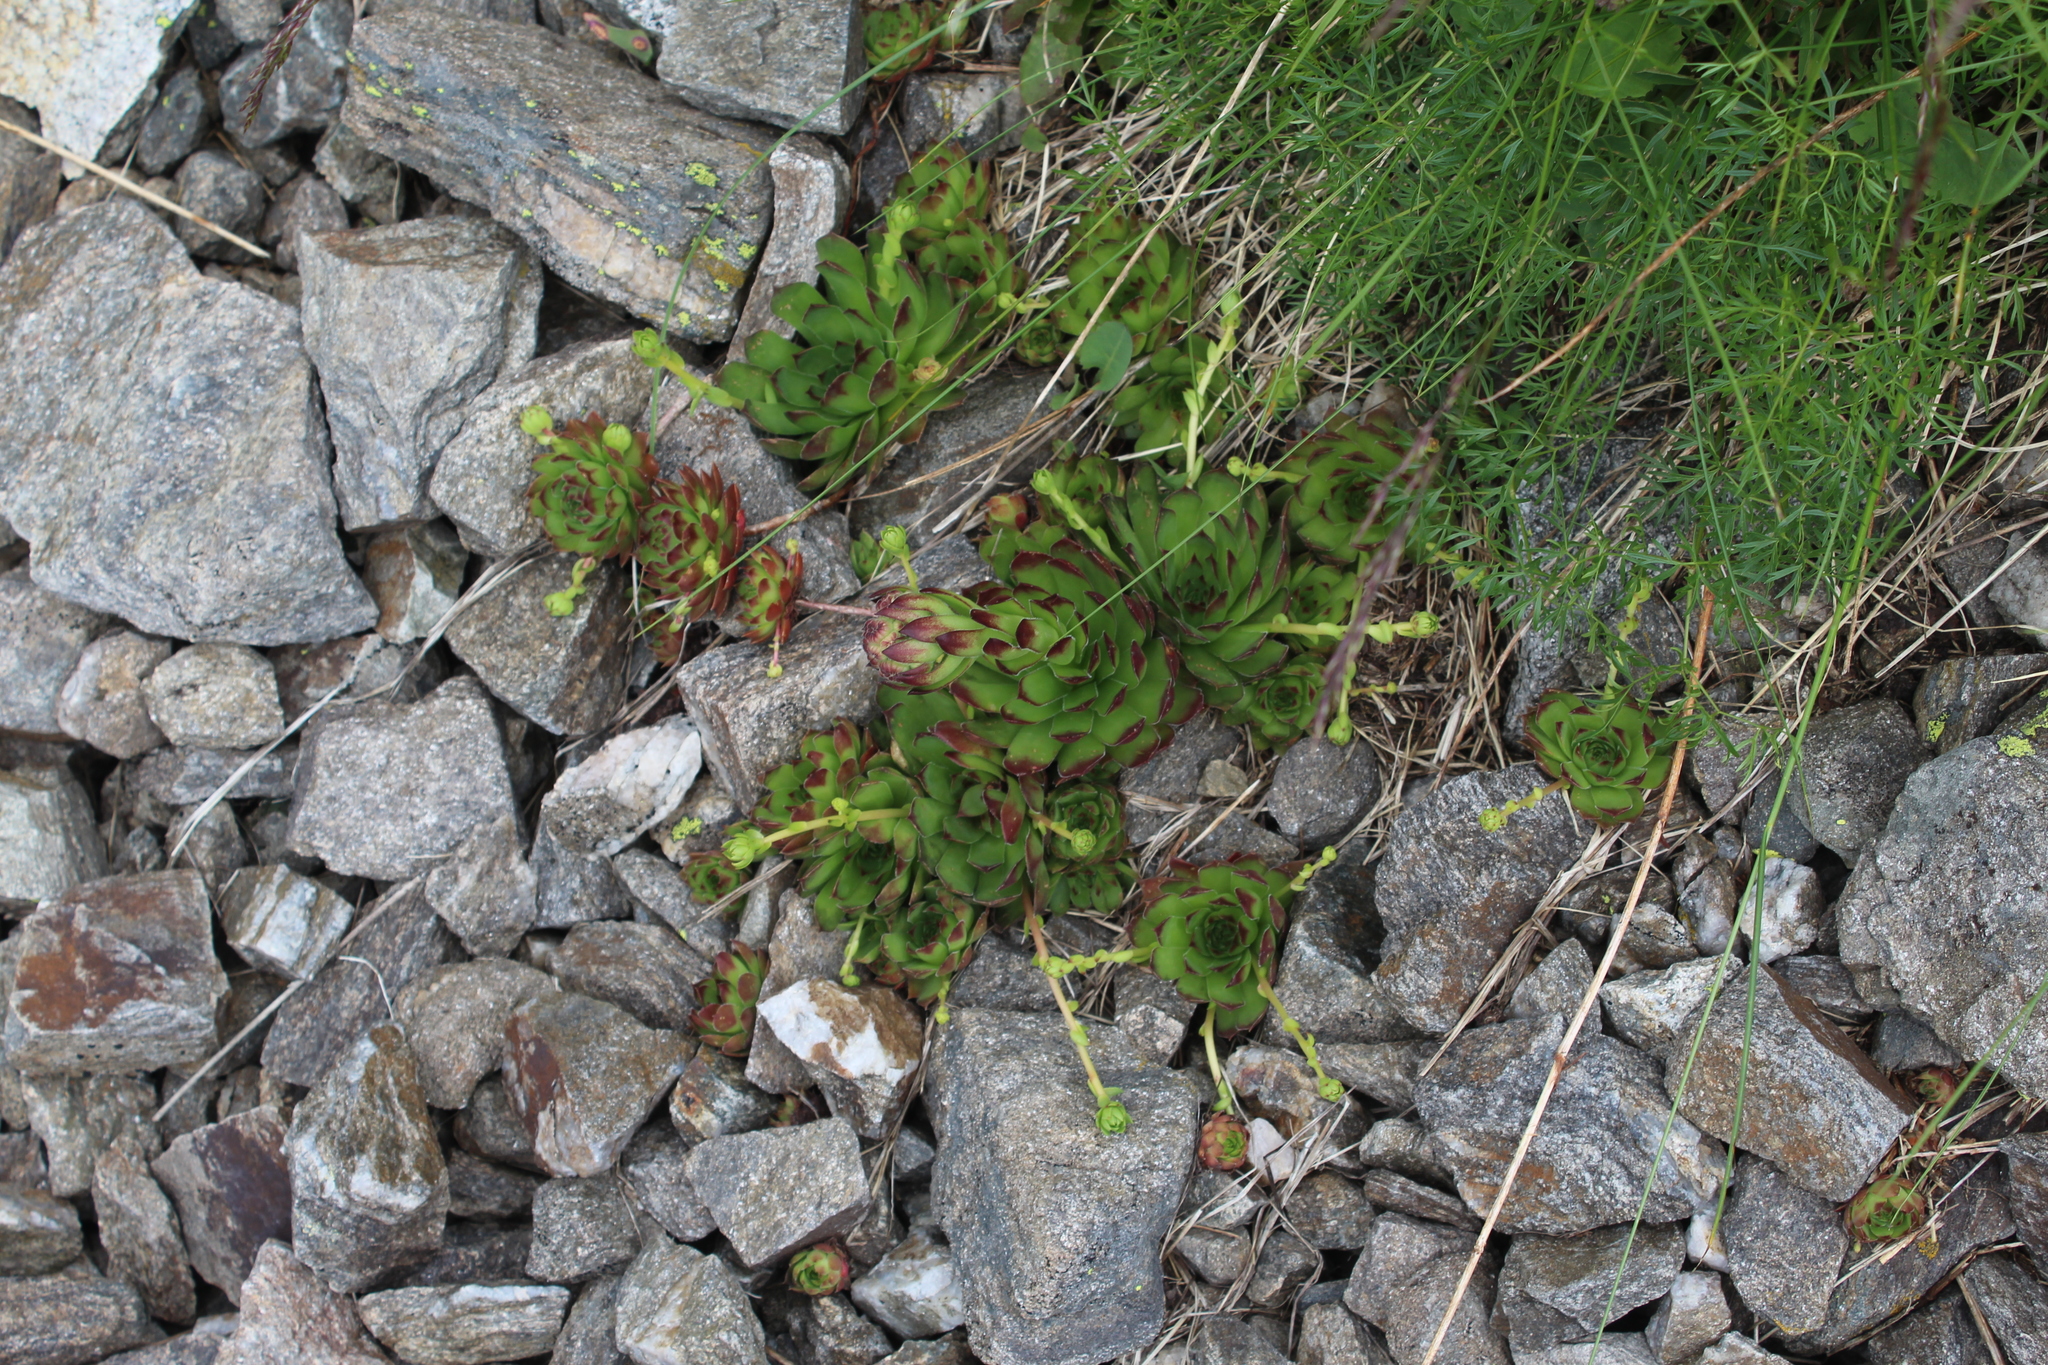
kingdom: Plantae
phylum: Tracheophyta
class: Magnoliopsida
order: Saxifragales
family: Crassulaceae
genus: Sempervivum
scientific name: Sempervivum caucasicum
